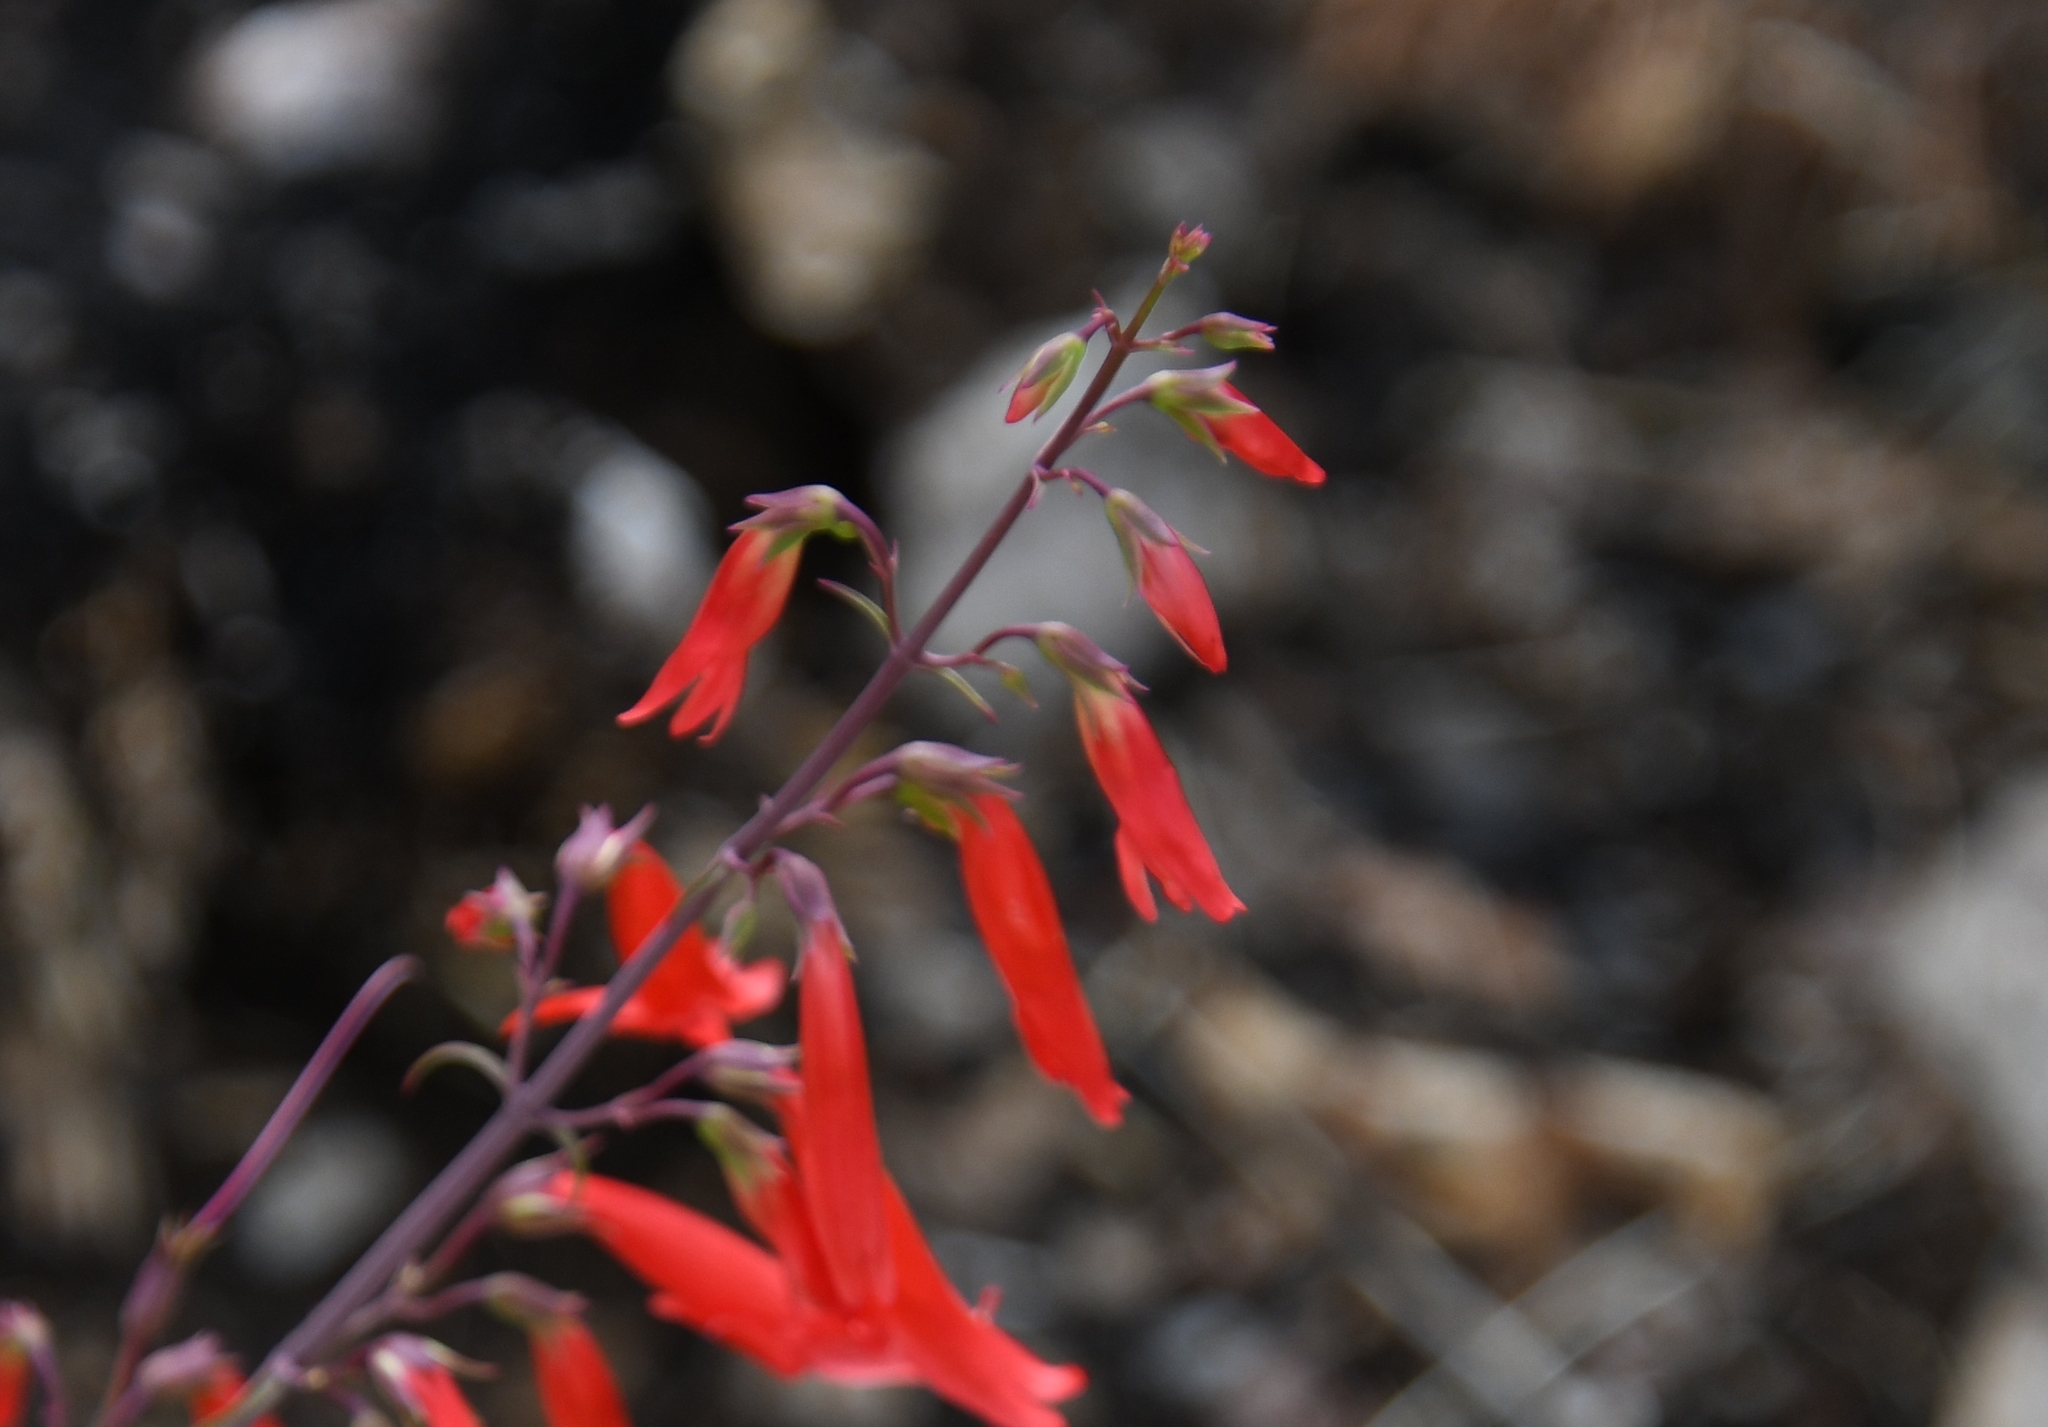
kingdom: Plantae
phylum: Tracheophyta
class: Magnoliopsida
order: Lamiales
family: Plantaginaceae
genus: Penstemon
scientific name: Penstemon barbatus
